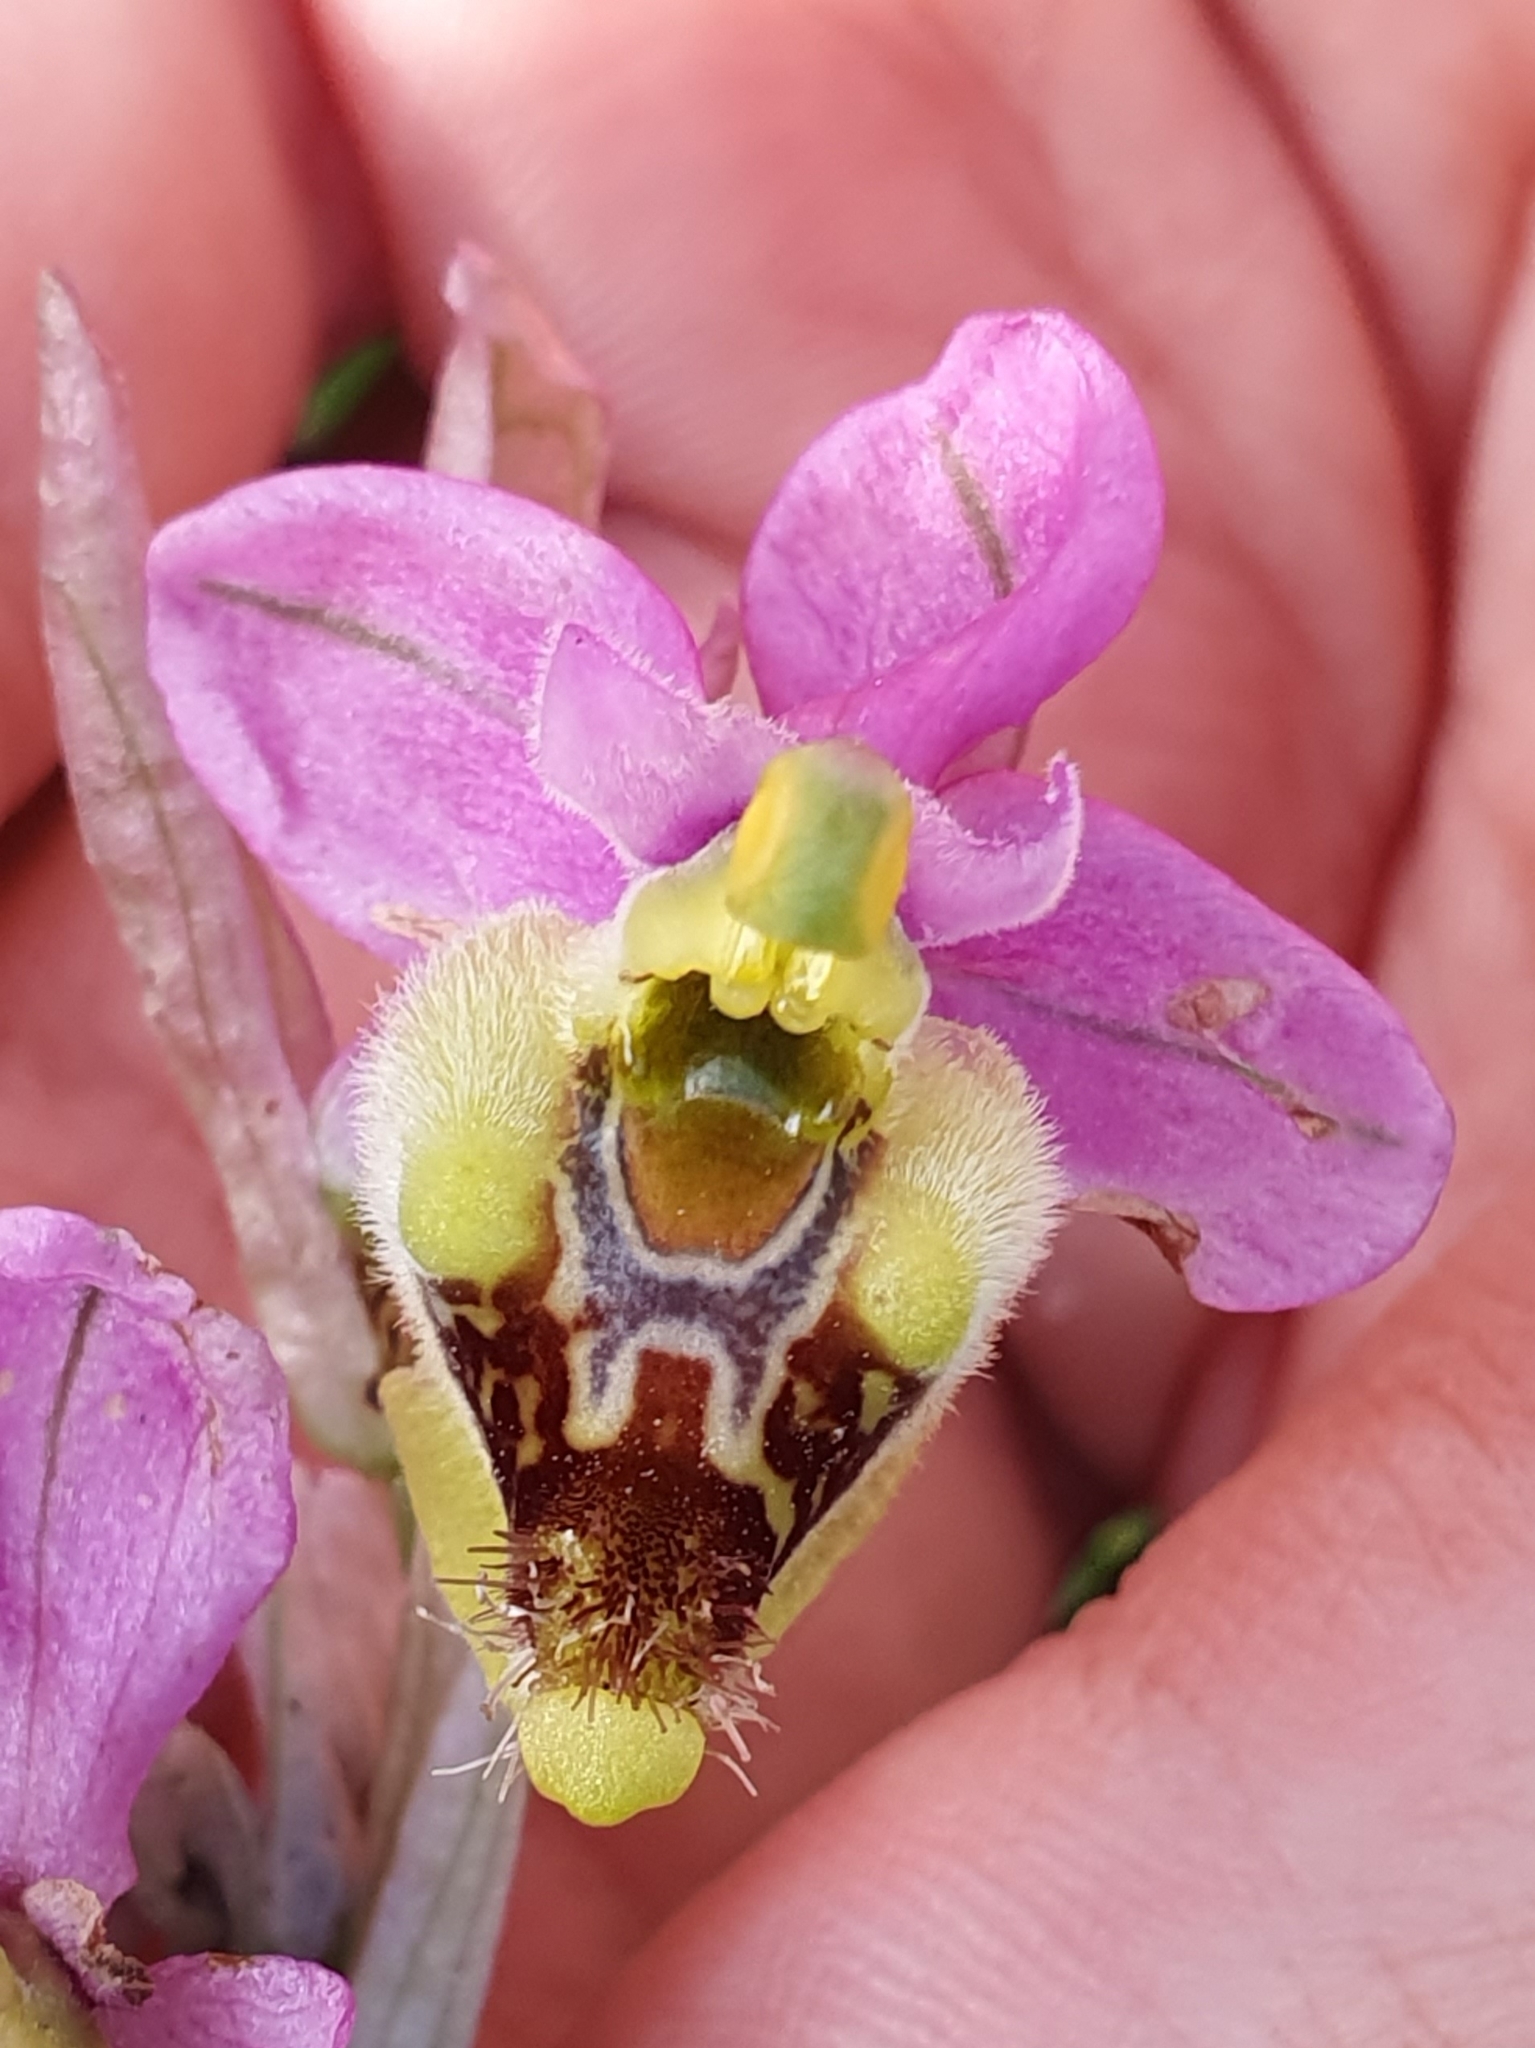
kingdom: Plantae
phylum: Tracheophyta
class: Liliopsida
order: Asparagales
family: Orchidaceae
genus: Ophrys
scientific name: Ophrys tenthredinifera
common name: Sawfly orchid
